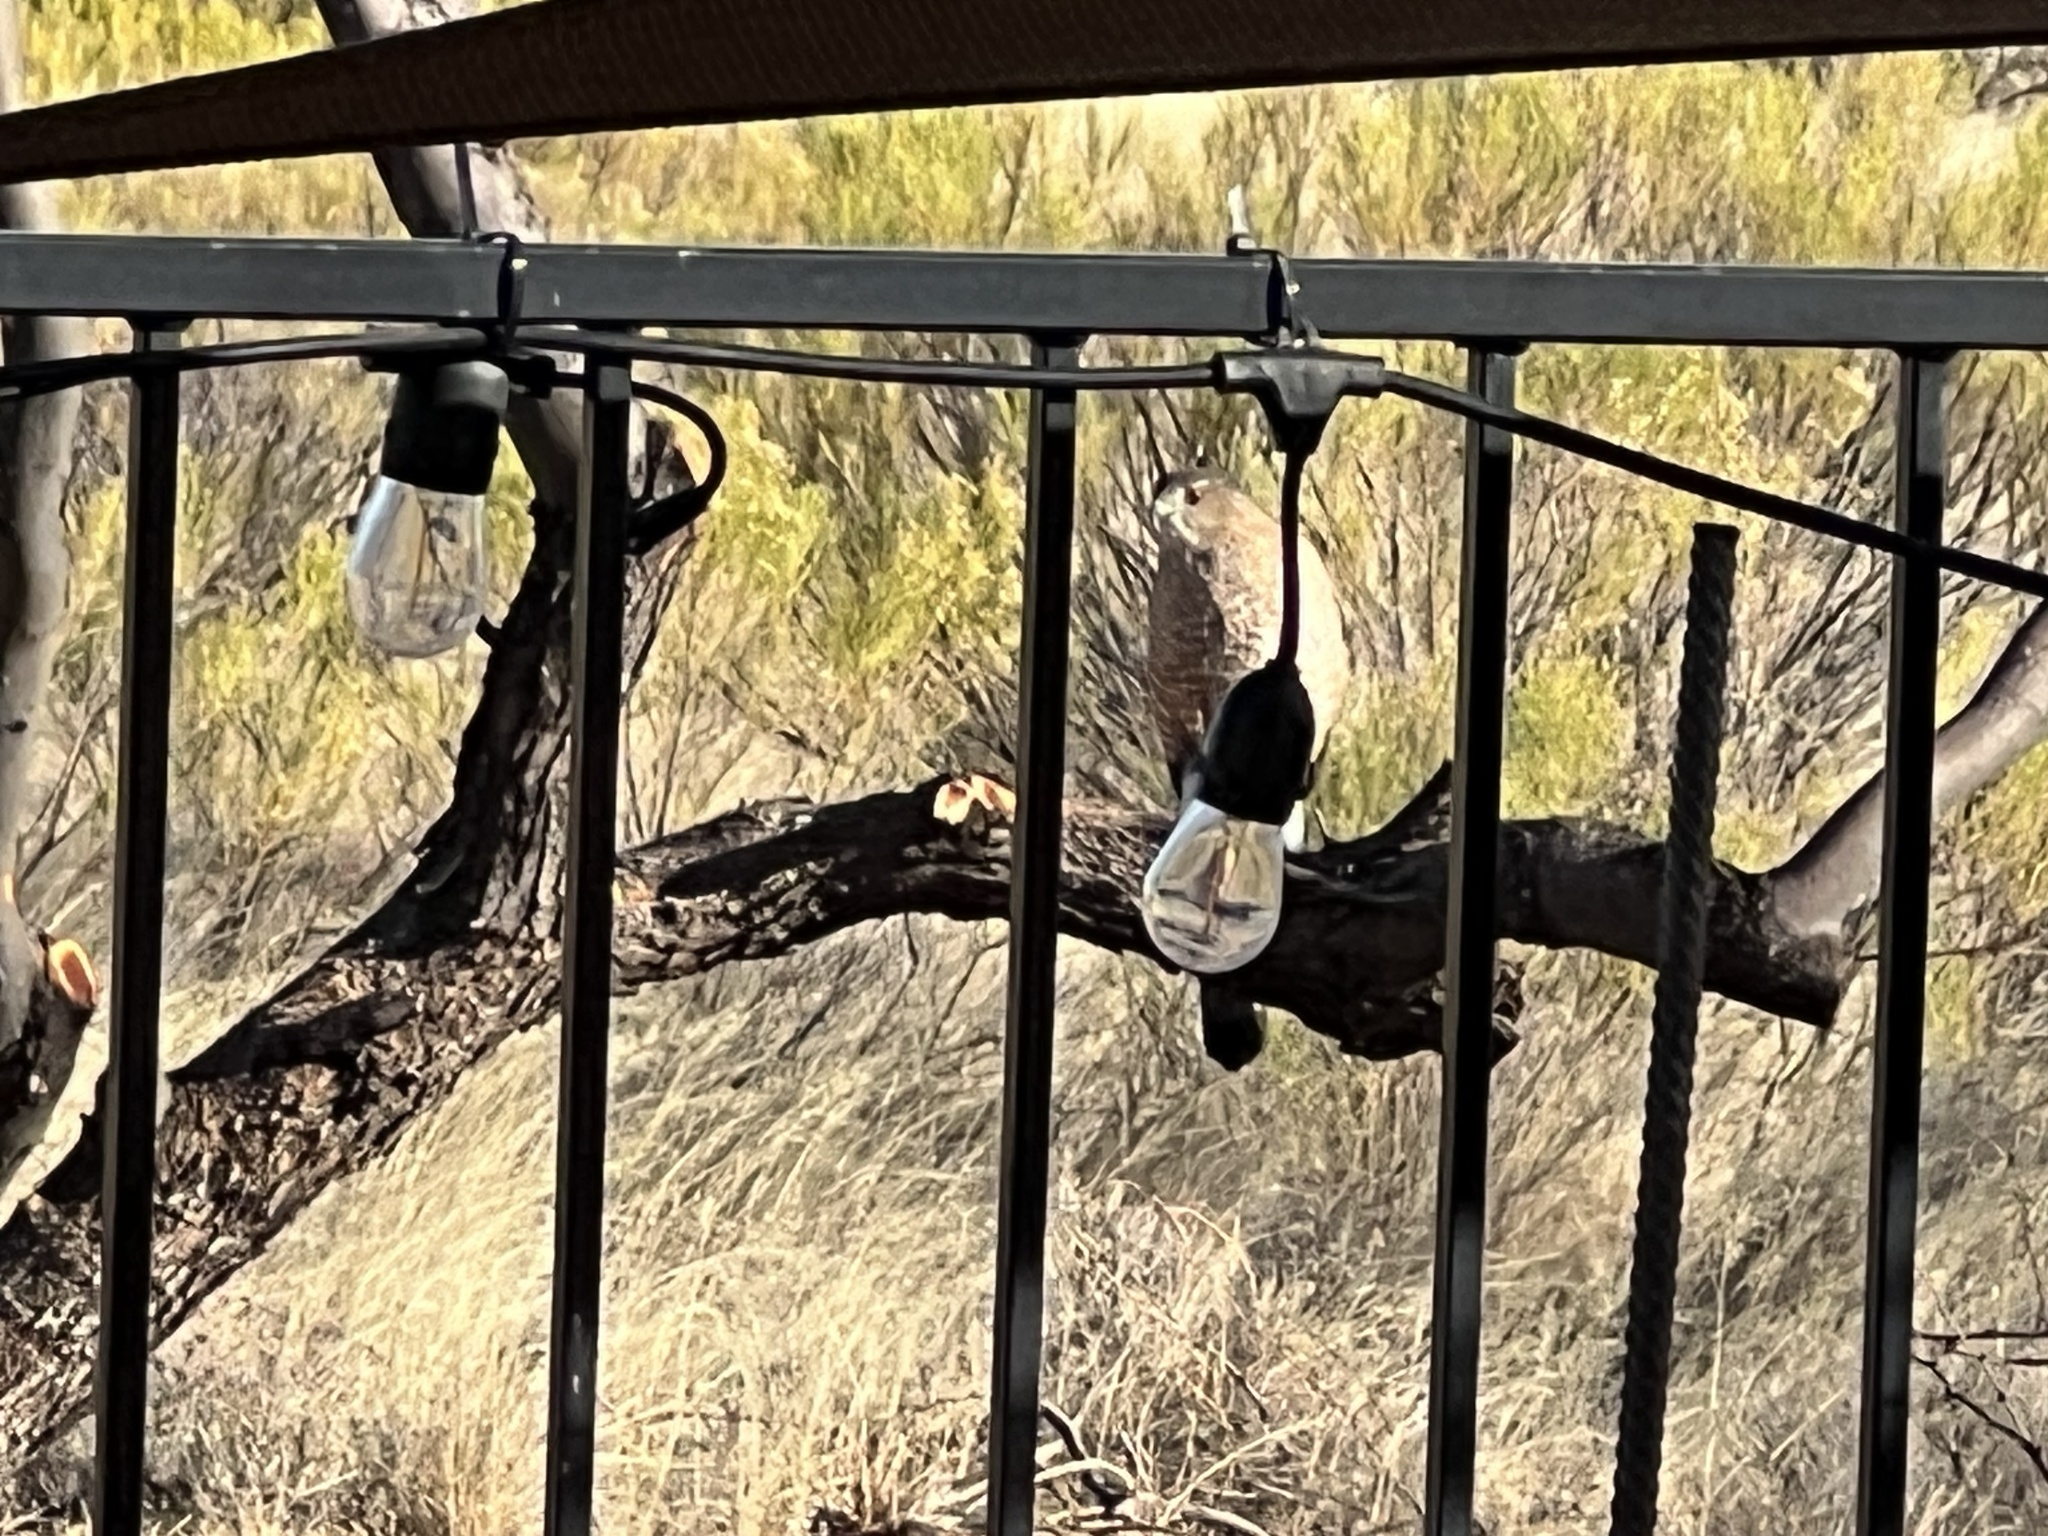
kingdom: Animalia
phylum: Chordata
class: Aves
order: Accipitriformes
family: Accipitridae
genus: Accipiter
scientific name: Accipiter cooperii
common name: Cooper's hawk
